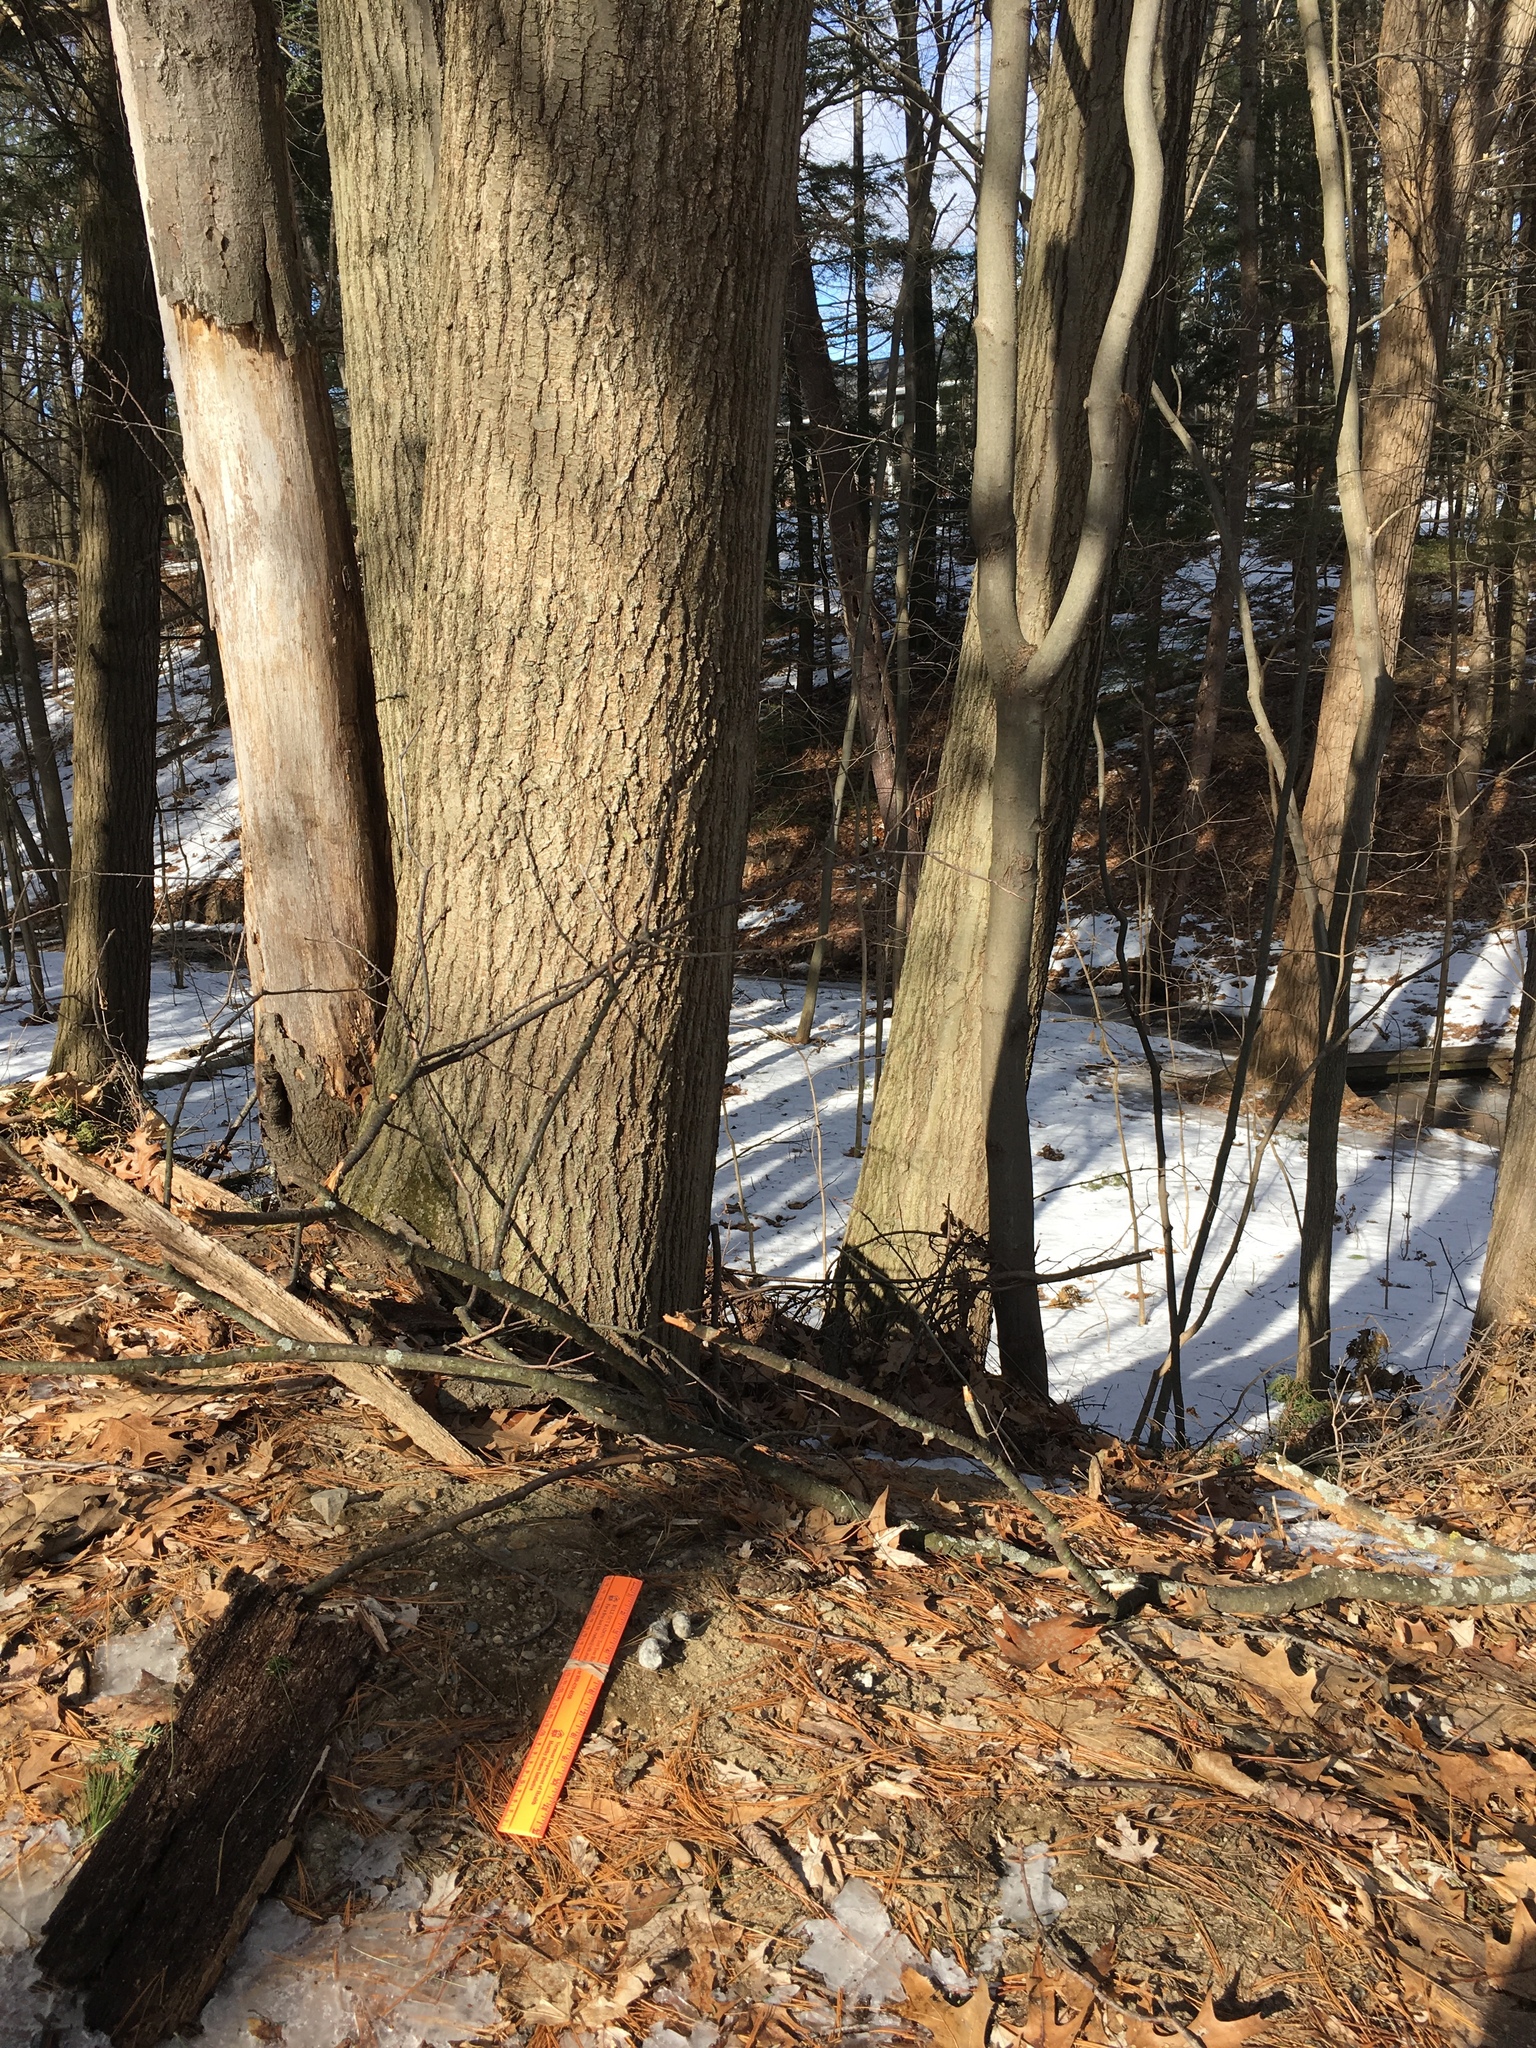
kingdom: Animalia
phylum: Chordata
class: Mammalia
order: Carnivora
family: Canidae
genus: Canis
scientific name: Canis latrans
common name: Coyote
